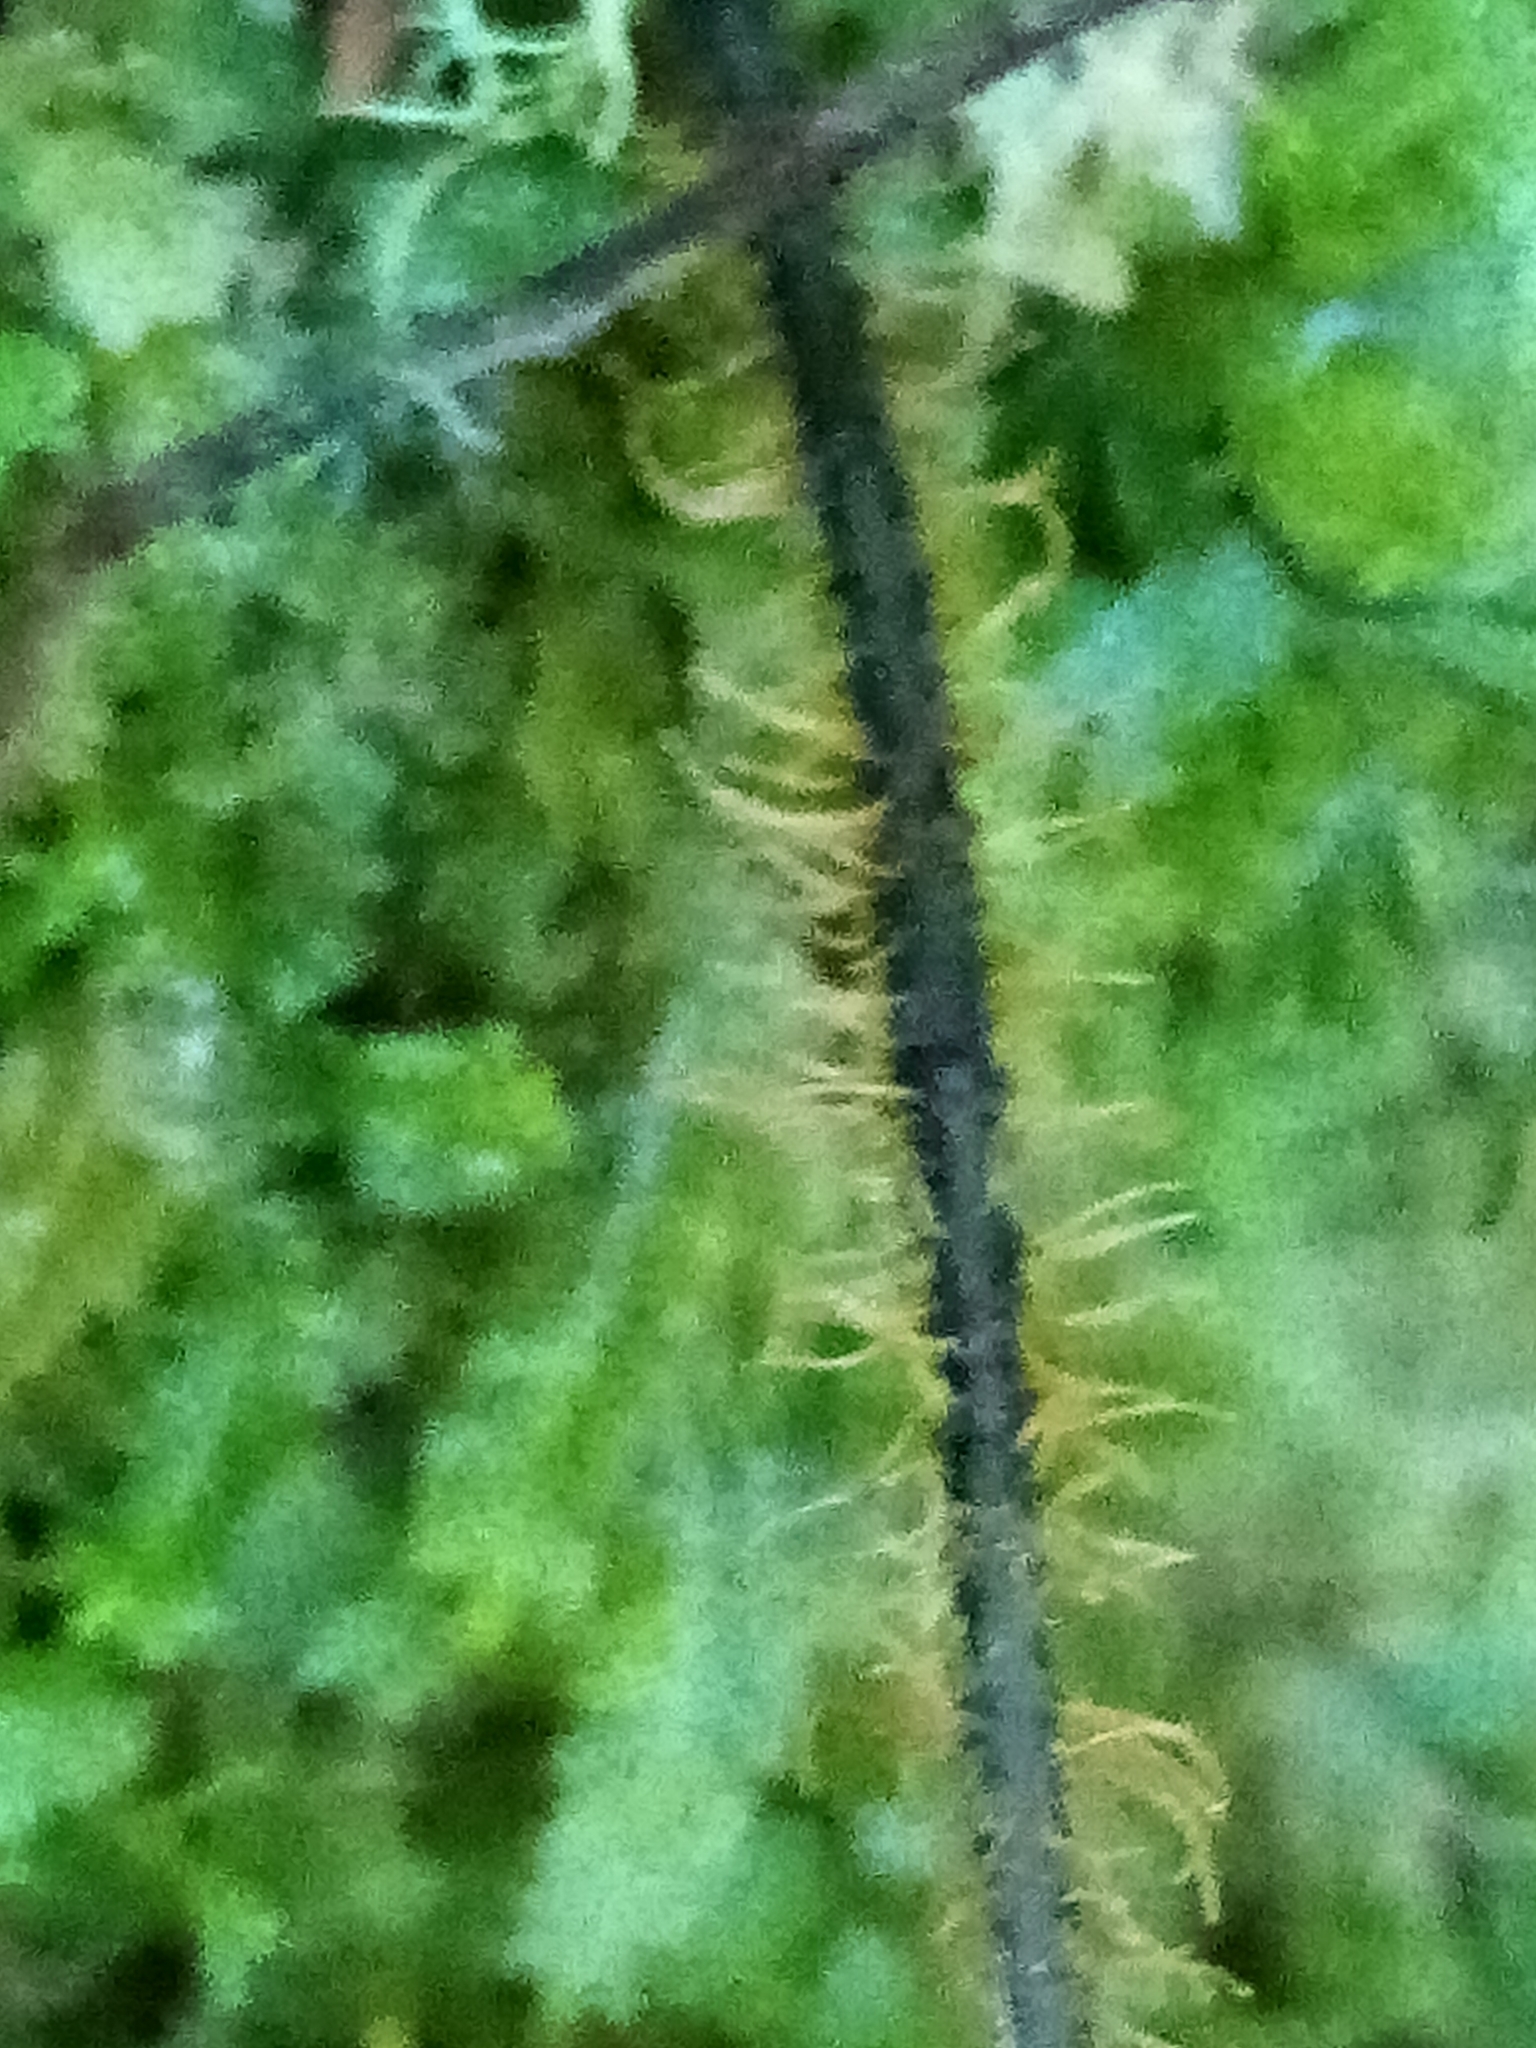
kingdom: Plantae
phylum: Tracheophyta
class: Polypodiopsida
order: Hymenophyllales
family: Hymenophyllaceae
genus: Hymenophyllum
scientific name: Hymenophyllum scabrum
